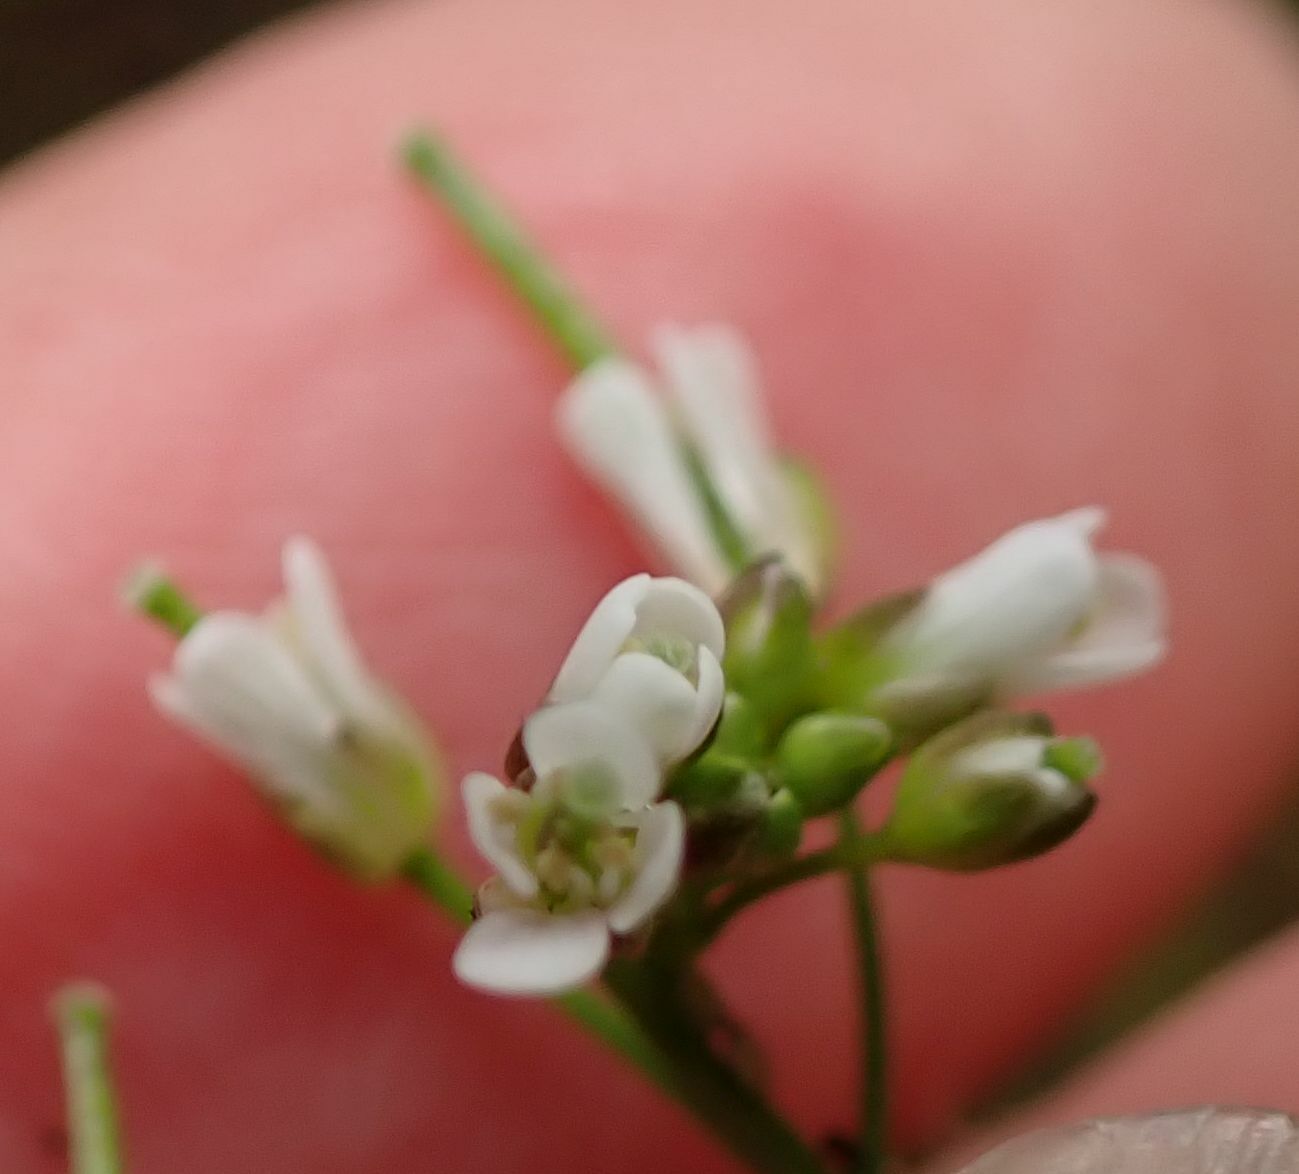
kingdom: Plantae
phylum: Tracheophyta
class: Magnoliopsida
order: Brassicales
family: Brassicaceae
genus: Cardamine
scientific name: Cardamine flexuosa
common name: Woodland bittercress
